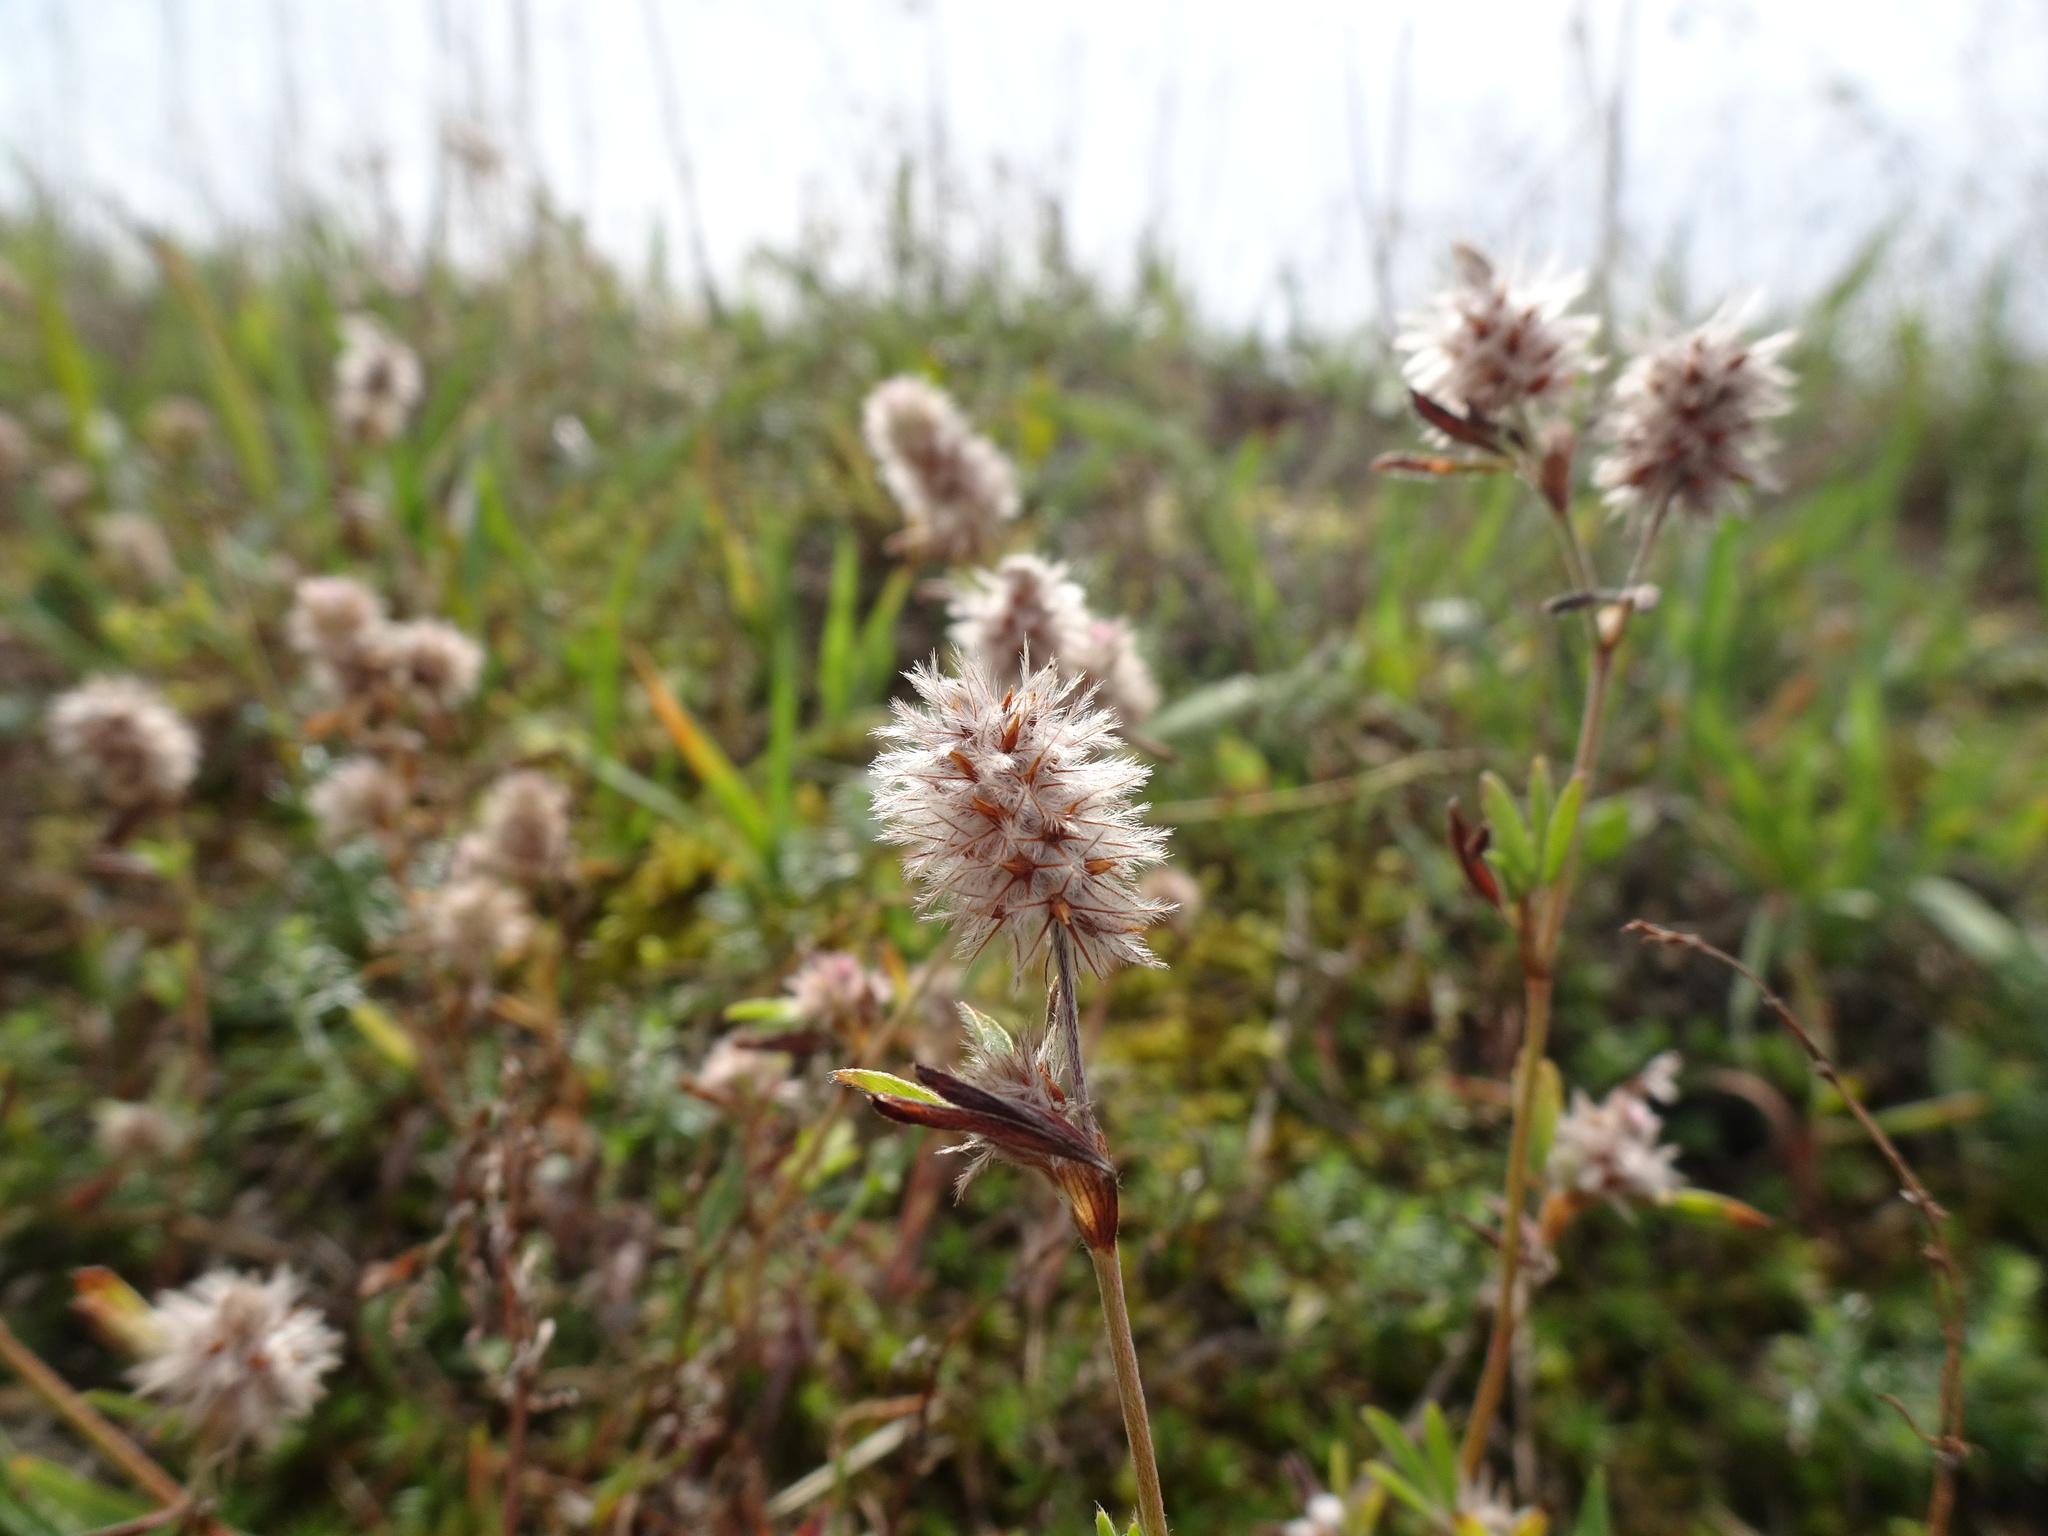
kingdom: Plantae
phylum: Tracheophyta
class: Magnoliopsida
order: Fabales
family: Fabaceae
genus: Trifolium
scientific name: Trifolium arvense
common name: Hare's-foot clover
